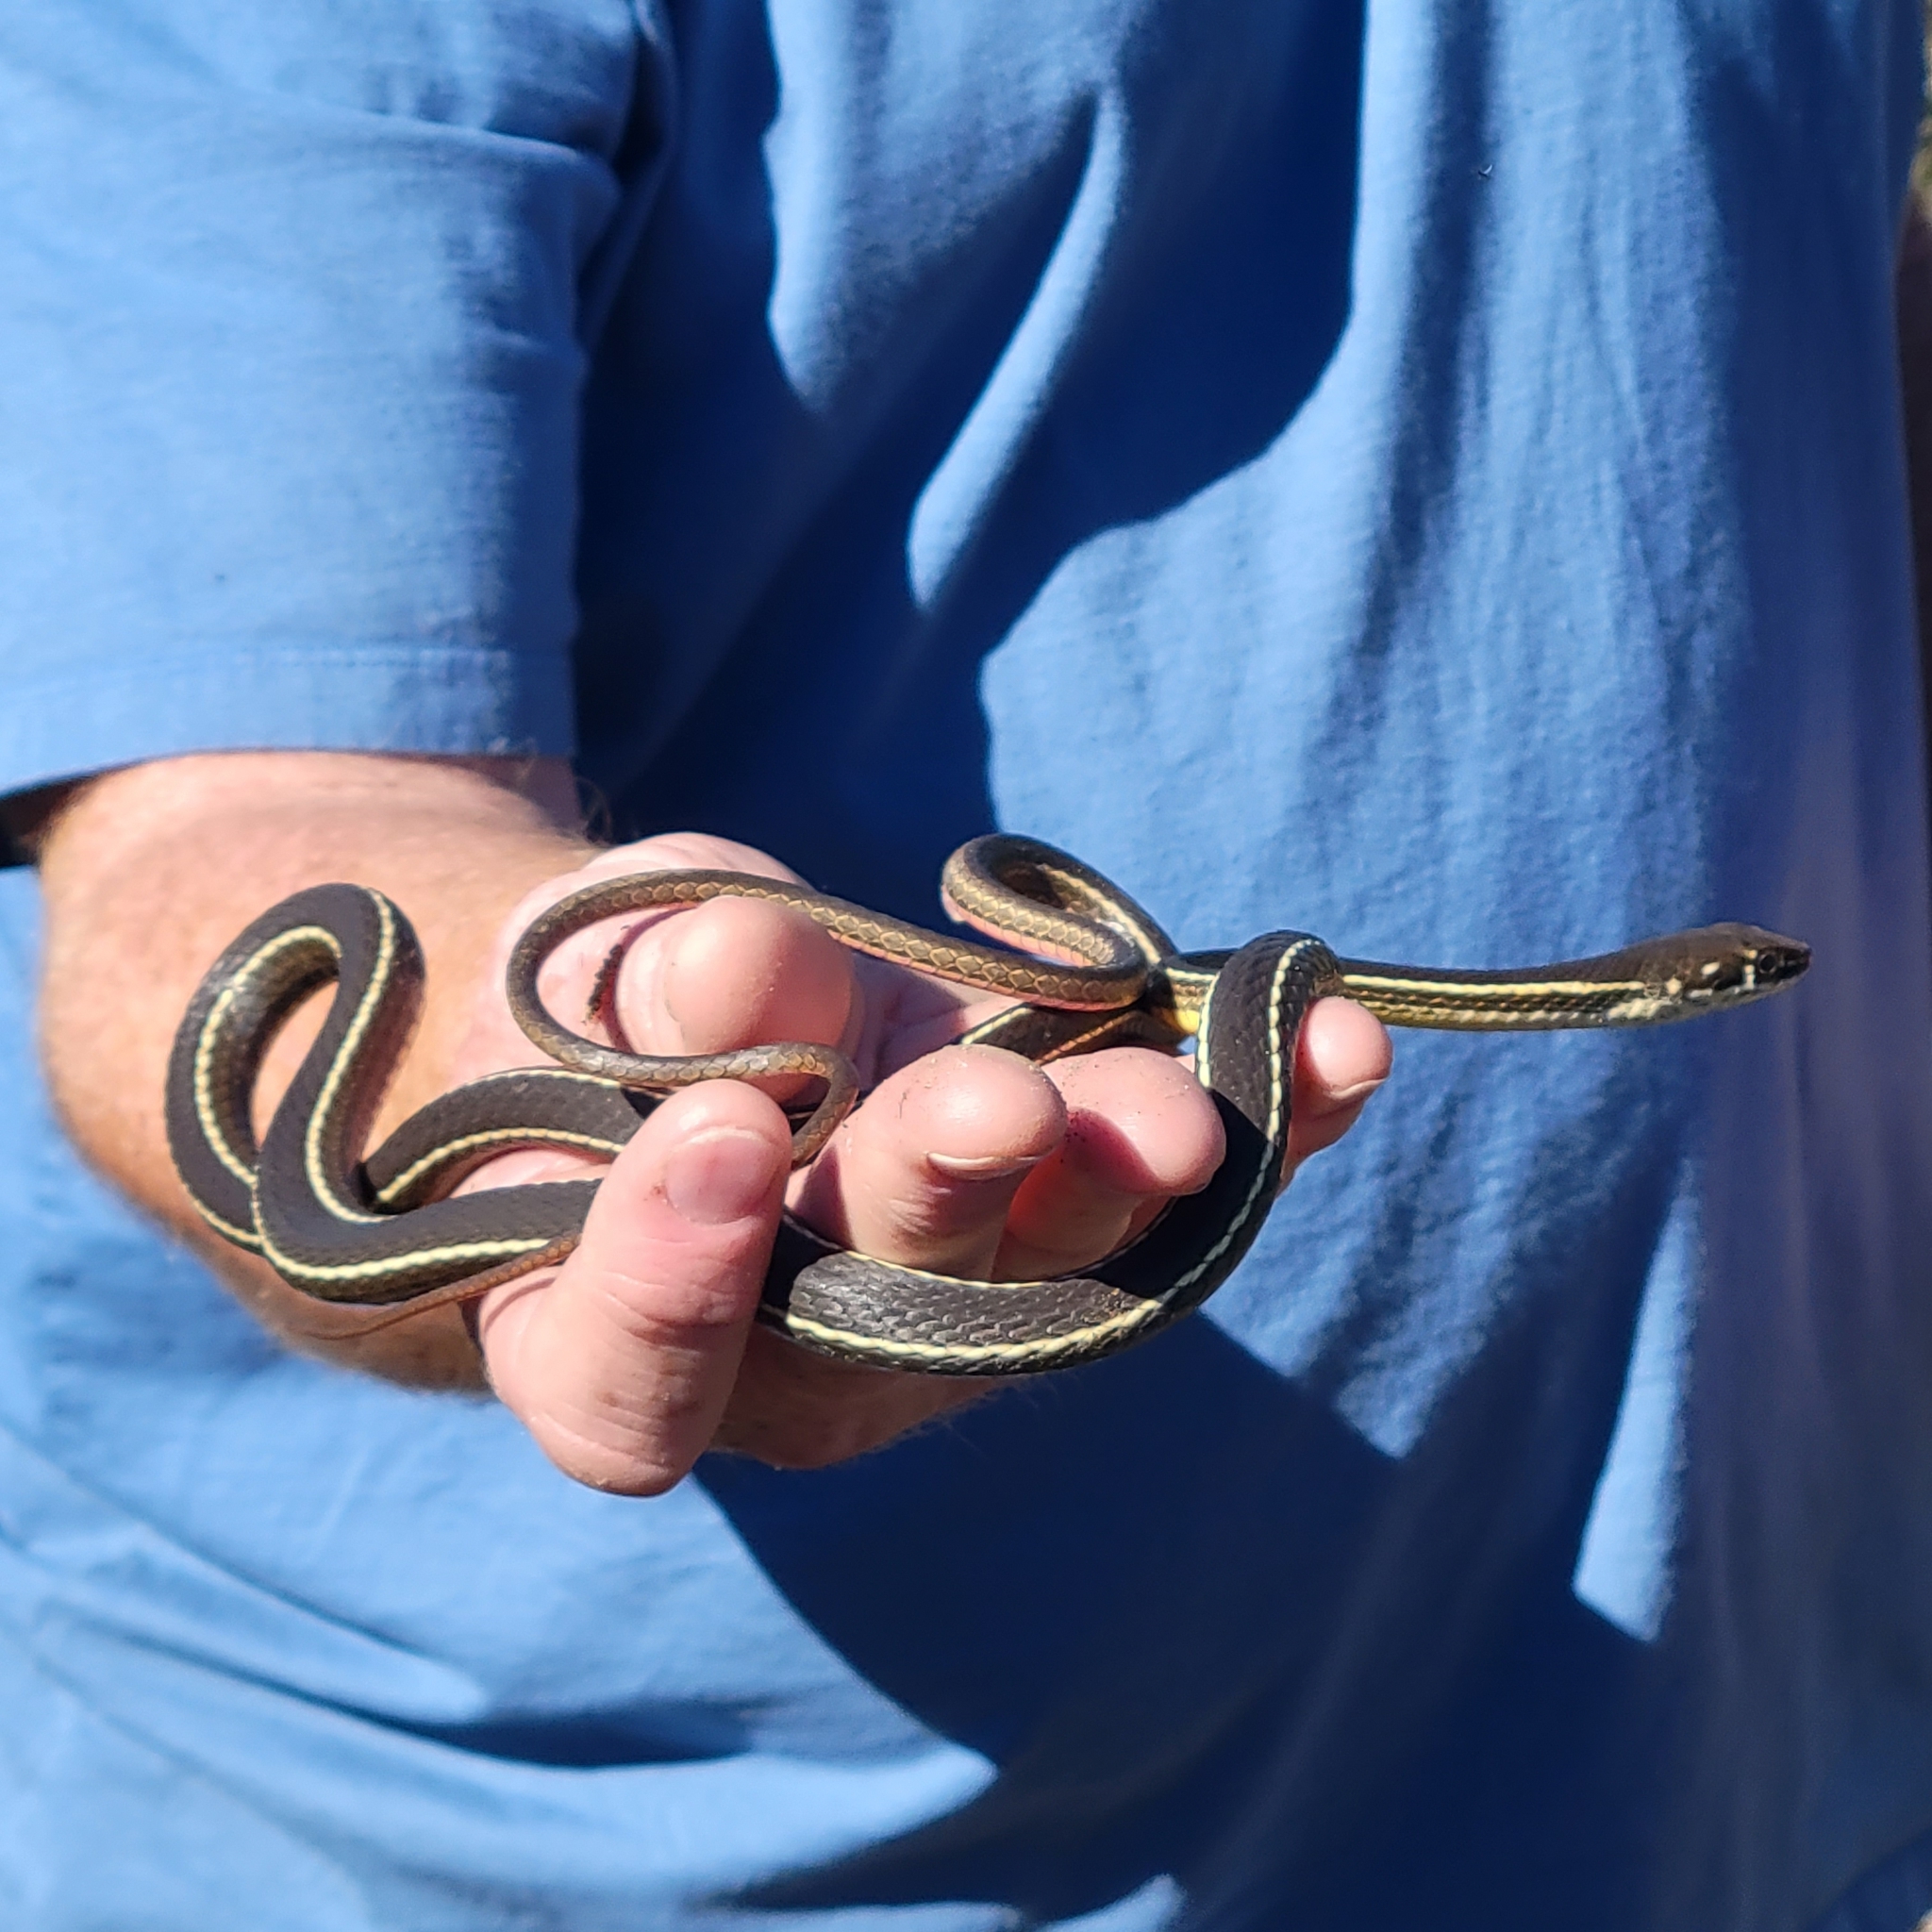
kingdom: Animalia
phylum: Chordata
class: Squamata
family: Colubridae
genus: Masticophis
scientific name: Masticophis lateralis
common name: Striped racer
